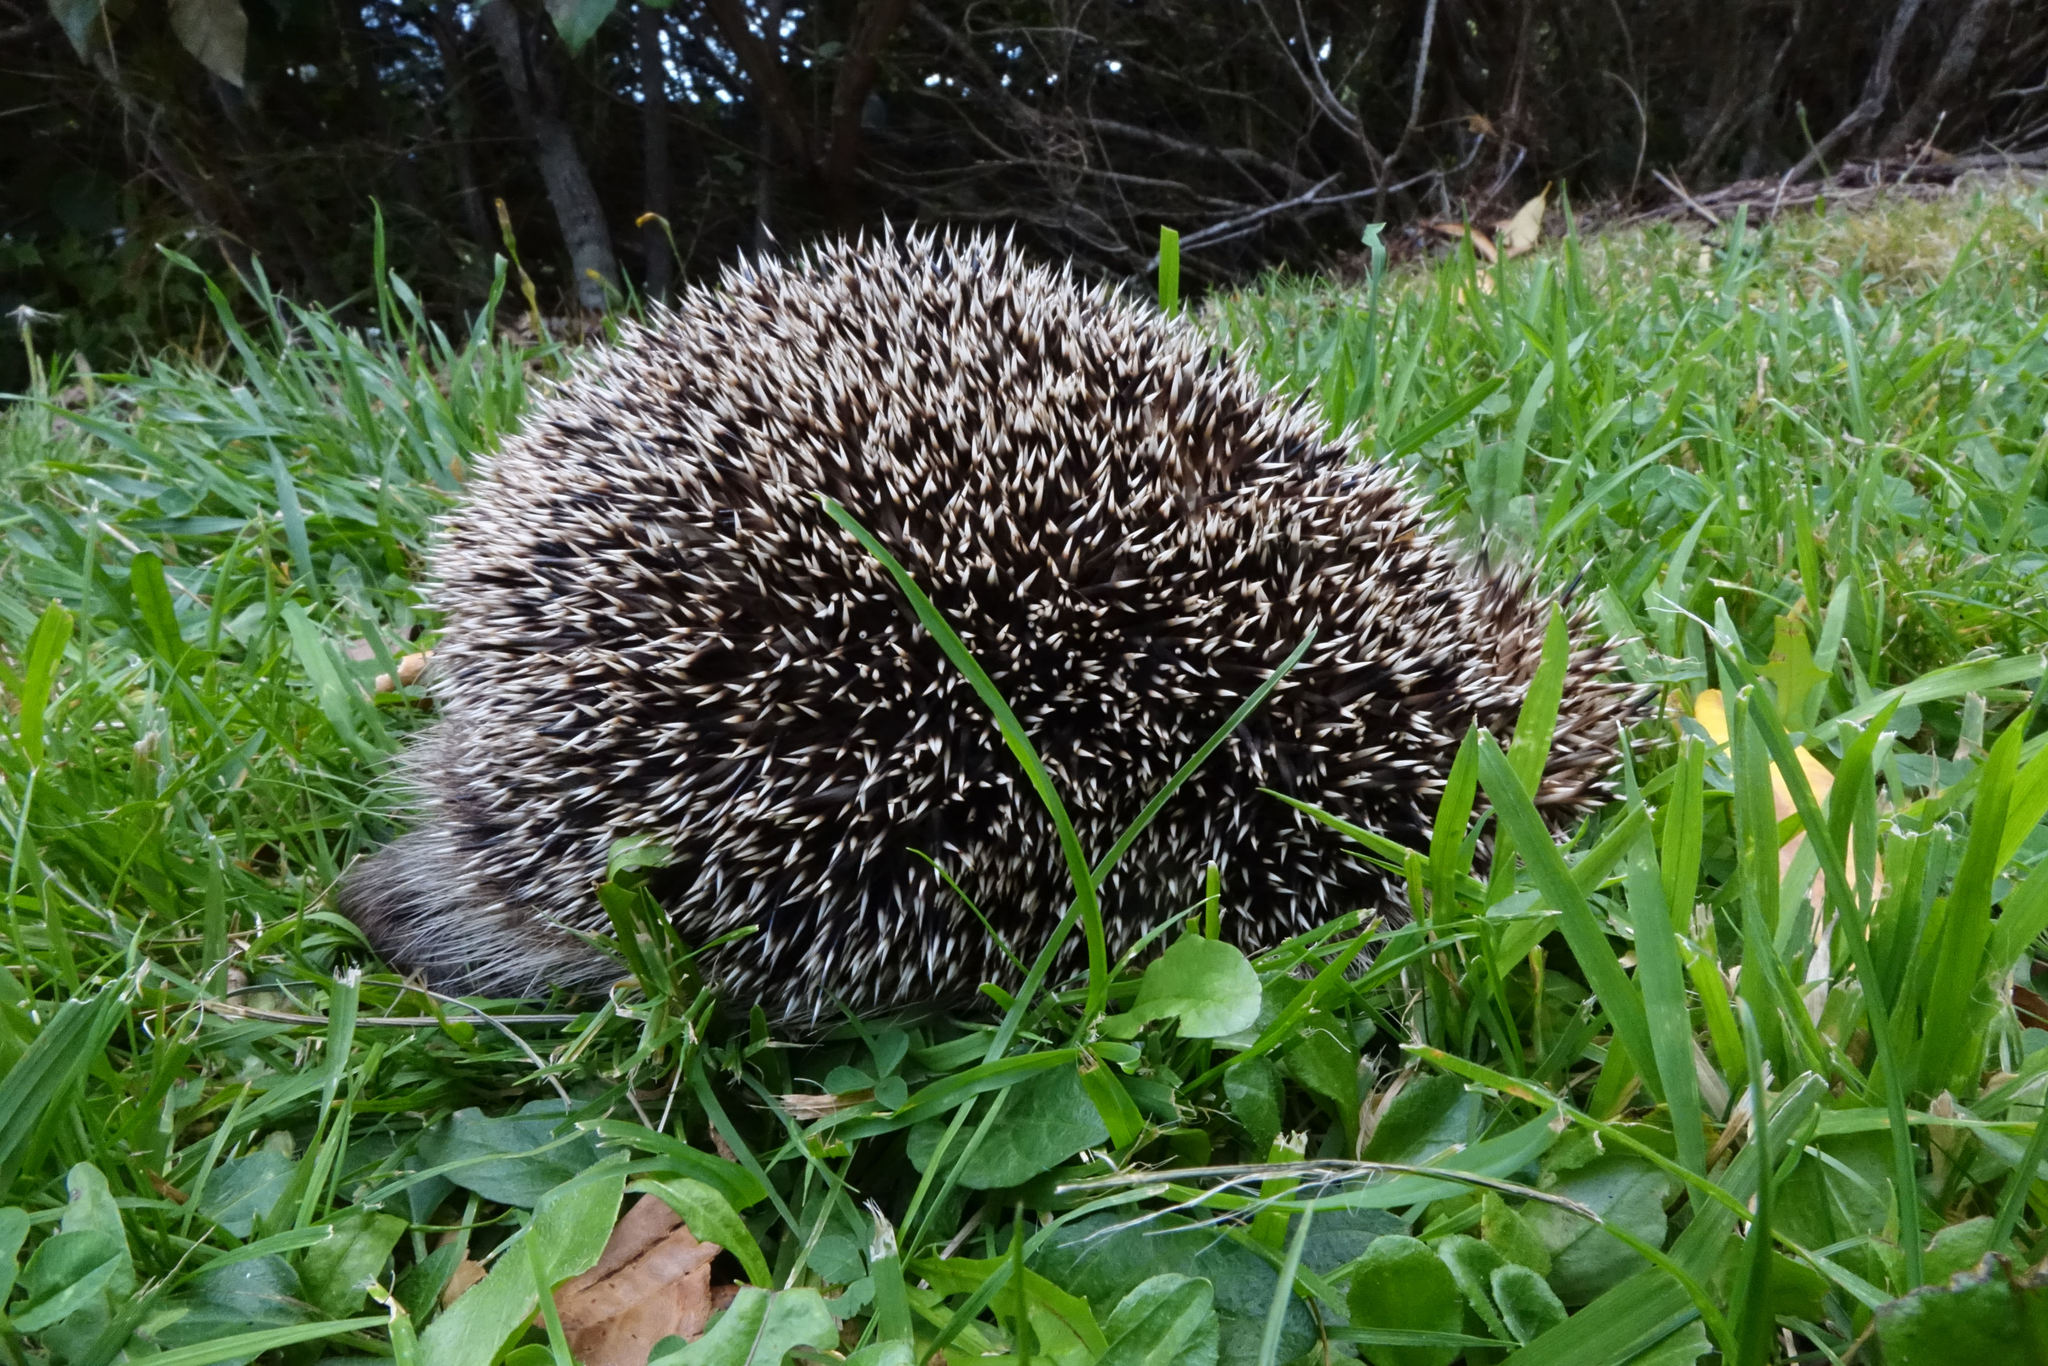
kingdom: Animalia
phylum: Chordata
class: Mammalia
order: Erinaceomorpha
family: Erinaceidae
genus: Erinaceus
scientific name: Erinaceus europaeus
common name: West european hedgehog
